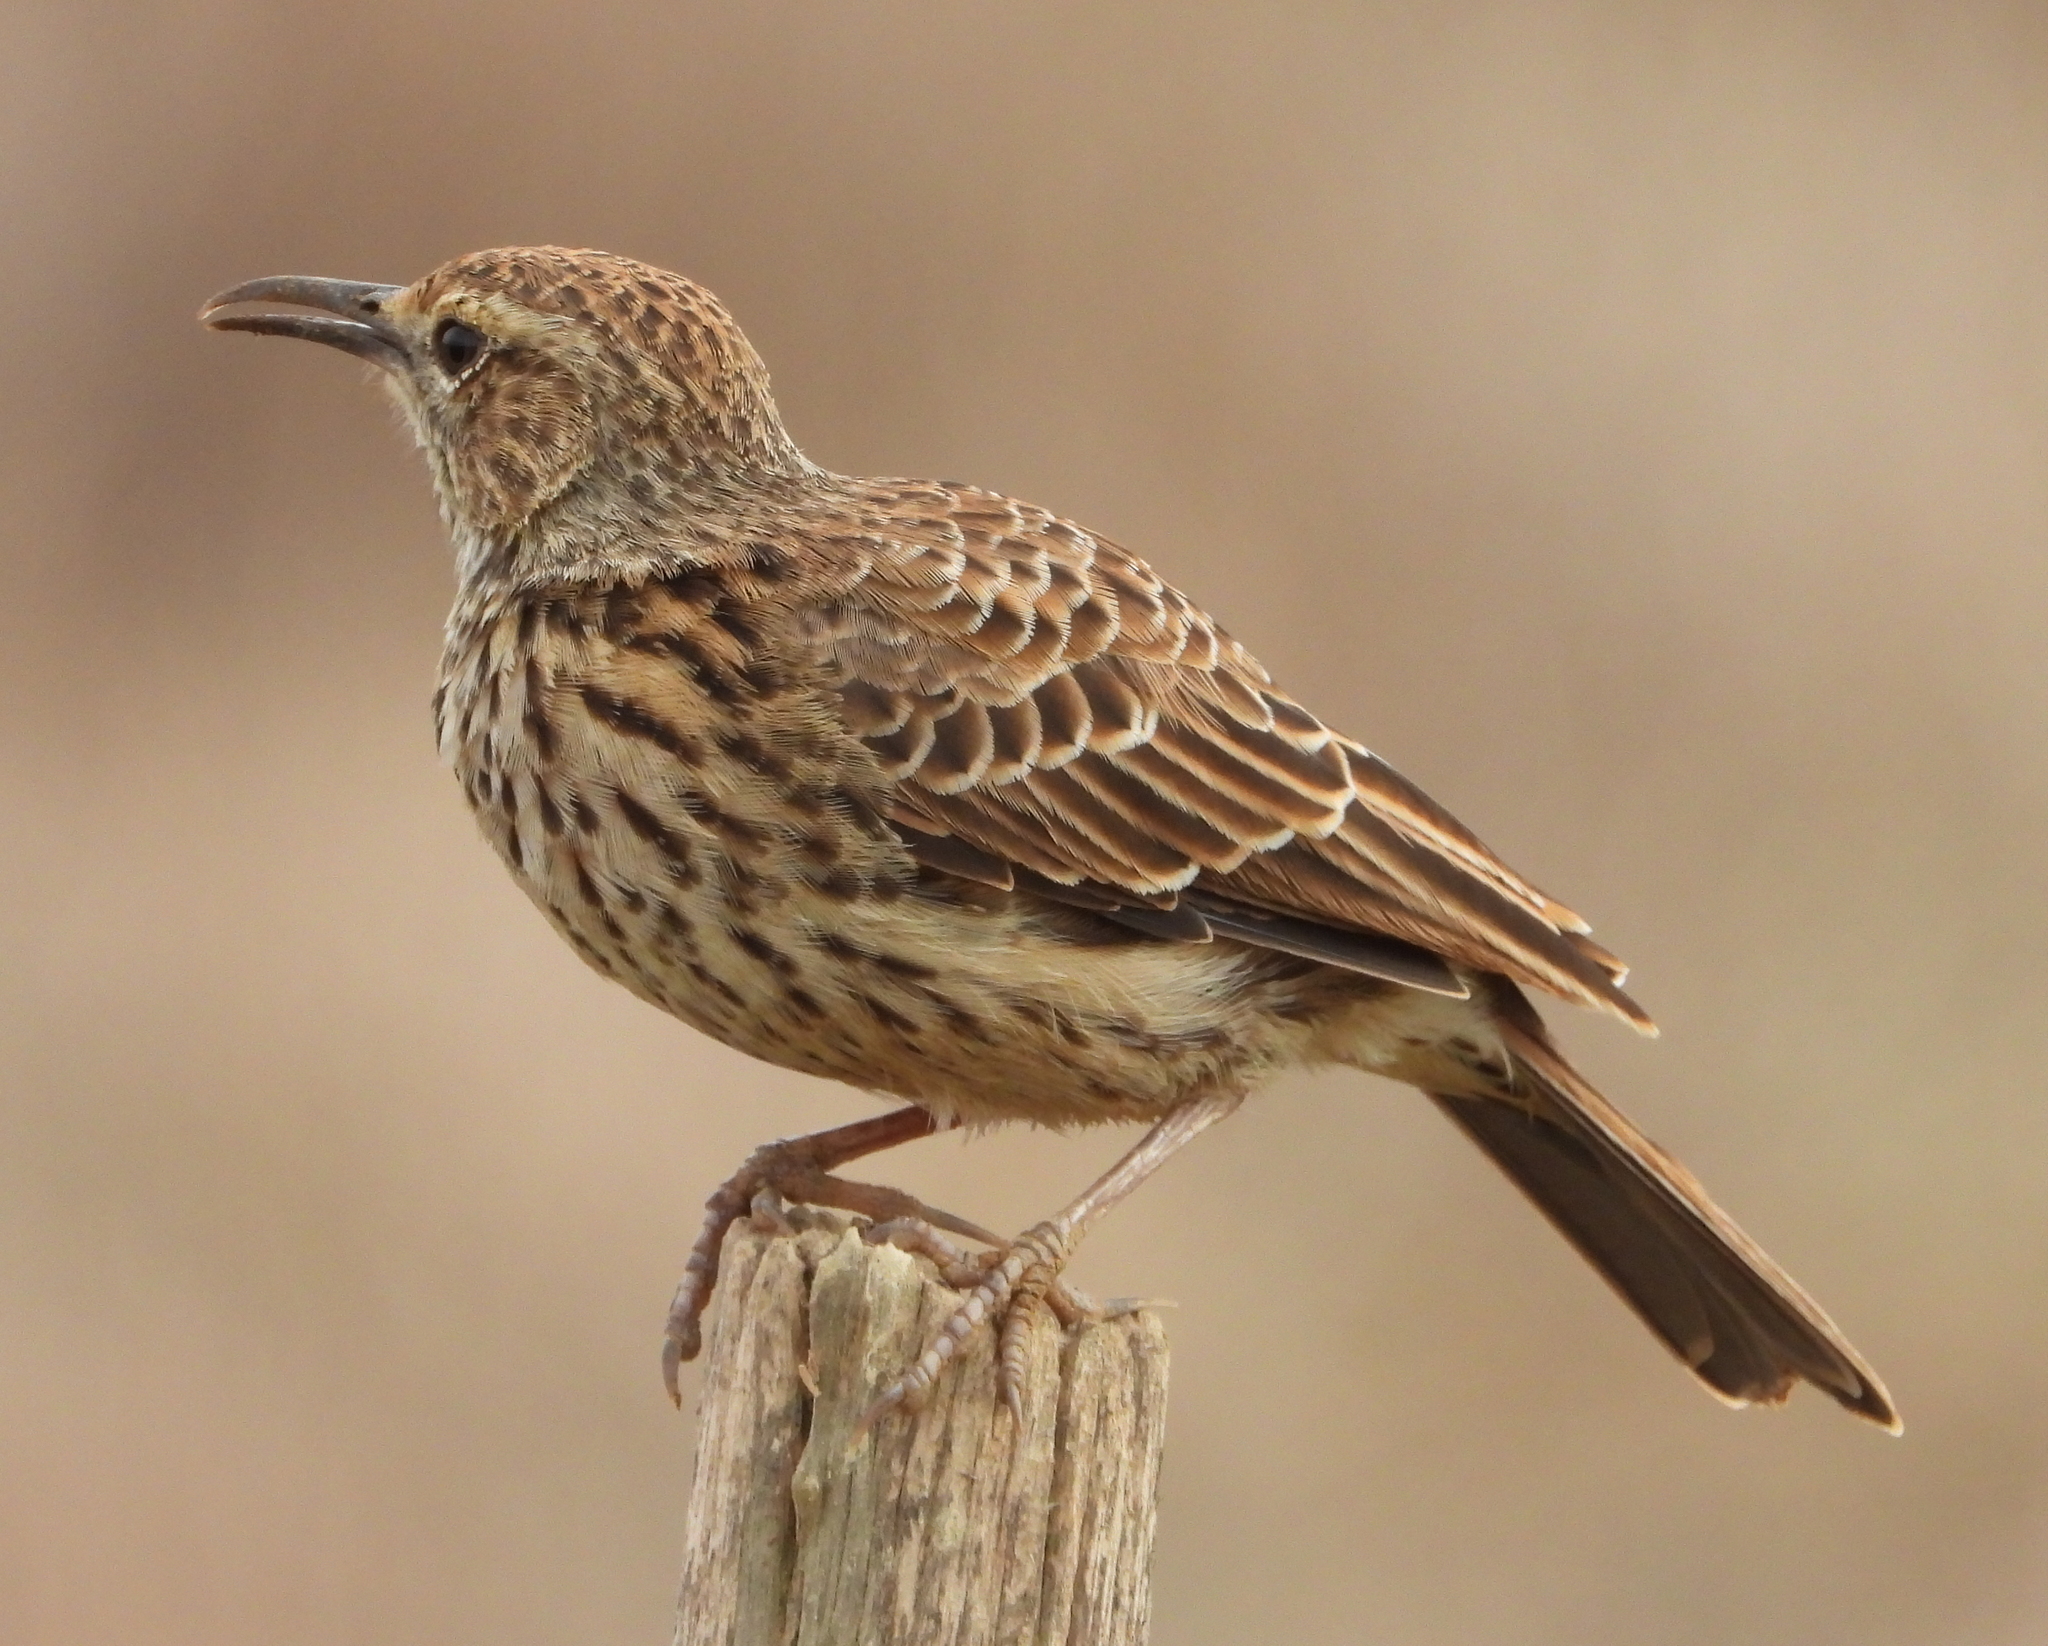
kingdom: Animalia
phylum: Chordata
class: Aves
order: Passeriformes
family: Alaudidae
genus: Certhilauda
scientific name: Certhilauda curvirostris
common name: Cape long-billed lark
